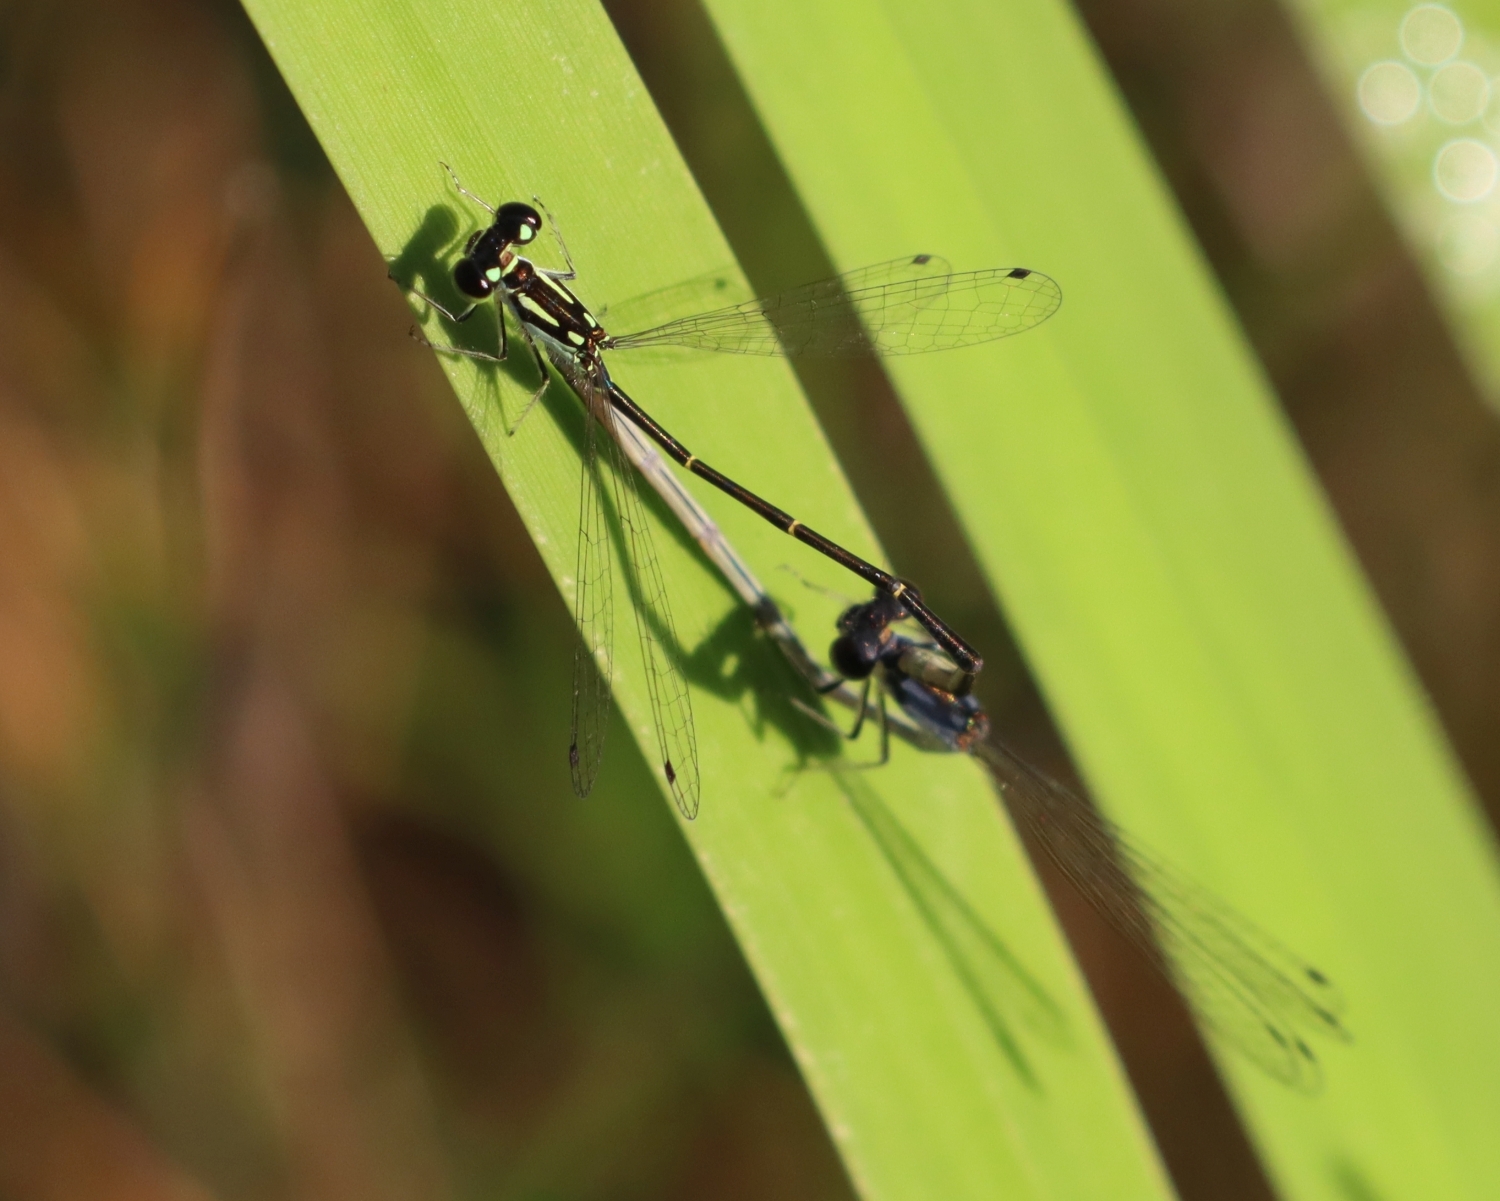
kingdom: Animalia
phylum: Arthropoda
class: Insecta
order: Odonata
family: Coenagrionidae
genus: Ischnura
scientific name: Ischnura posita
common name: Fragile forktail
